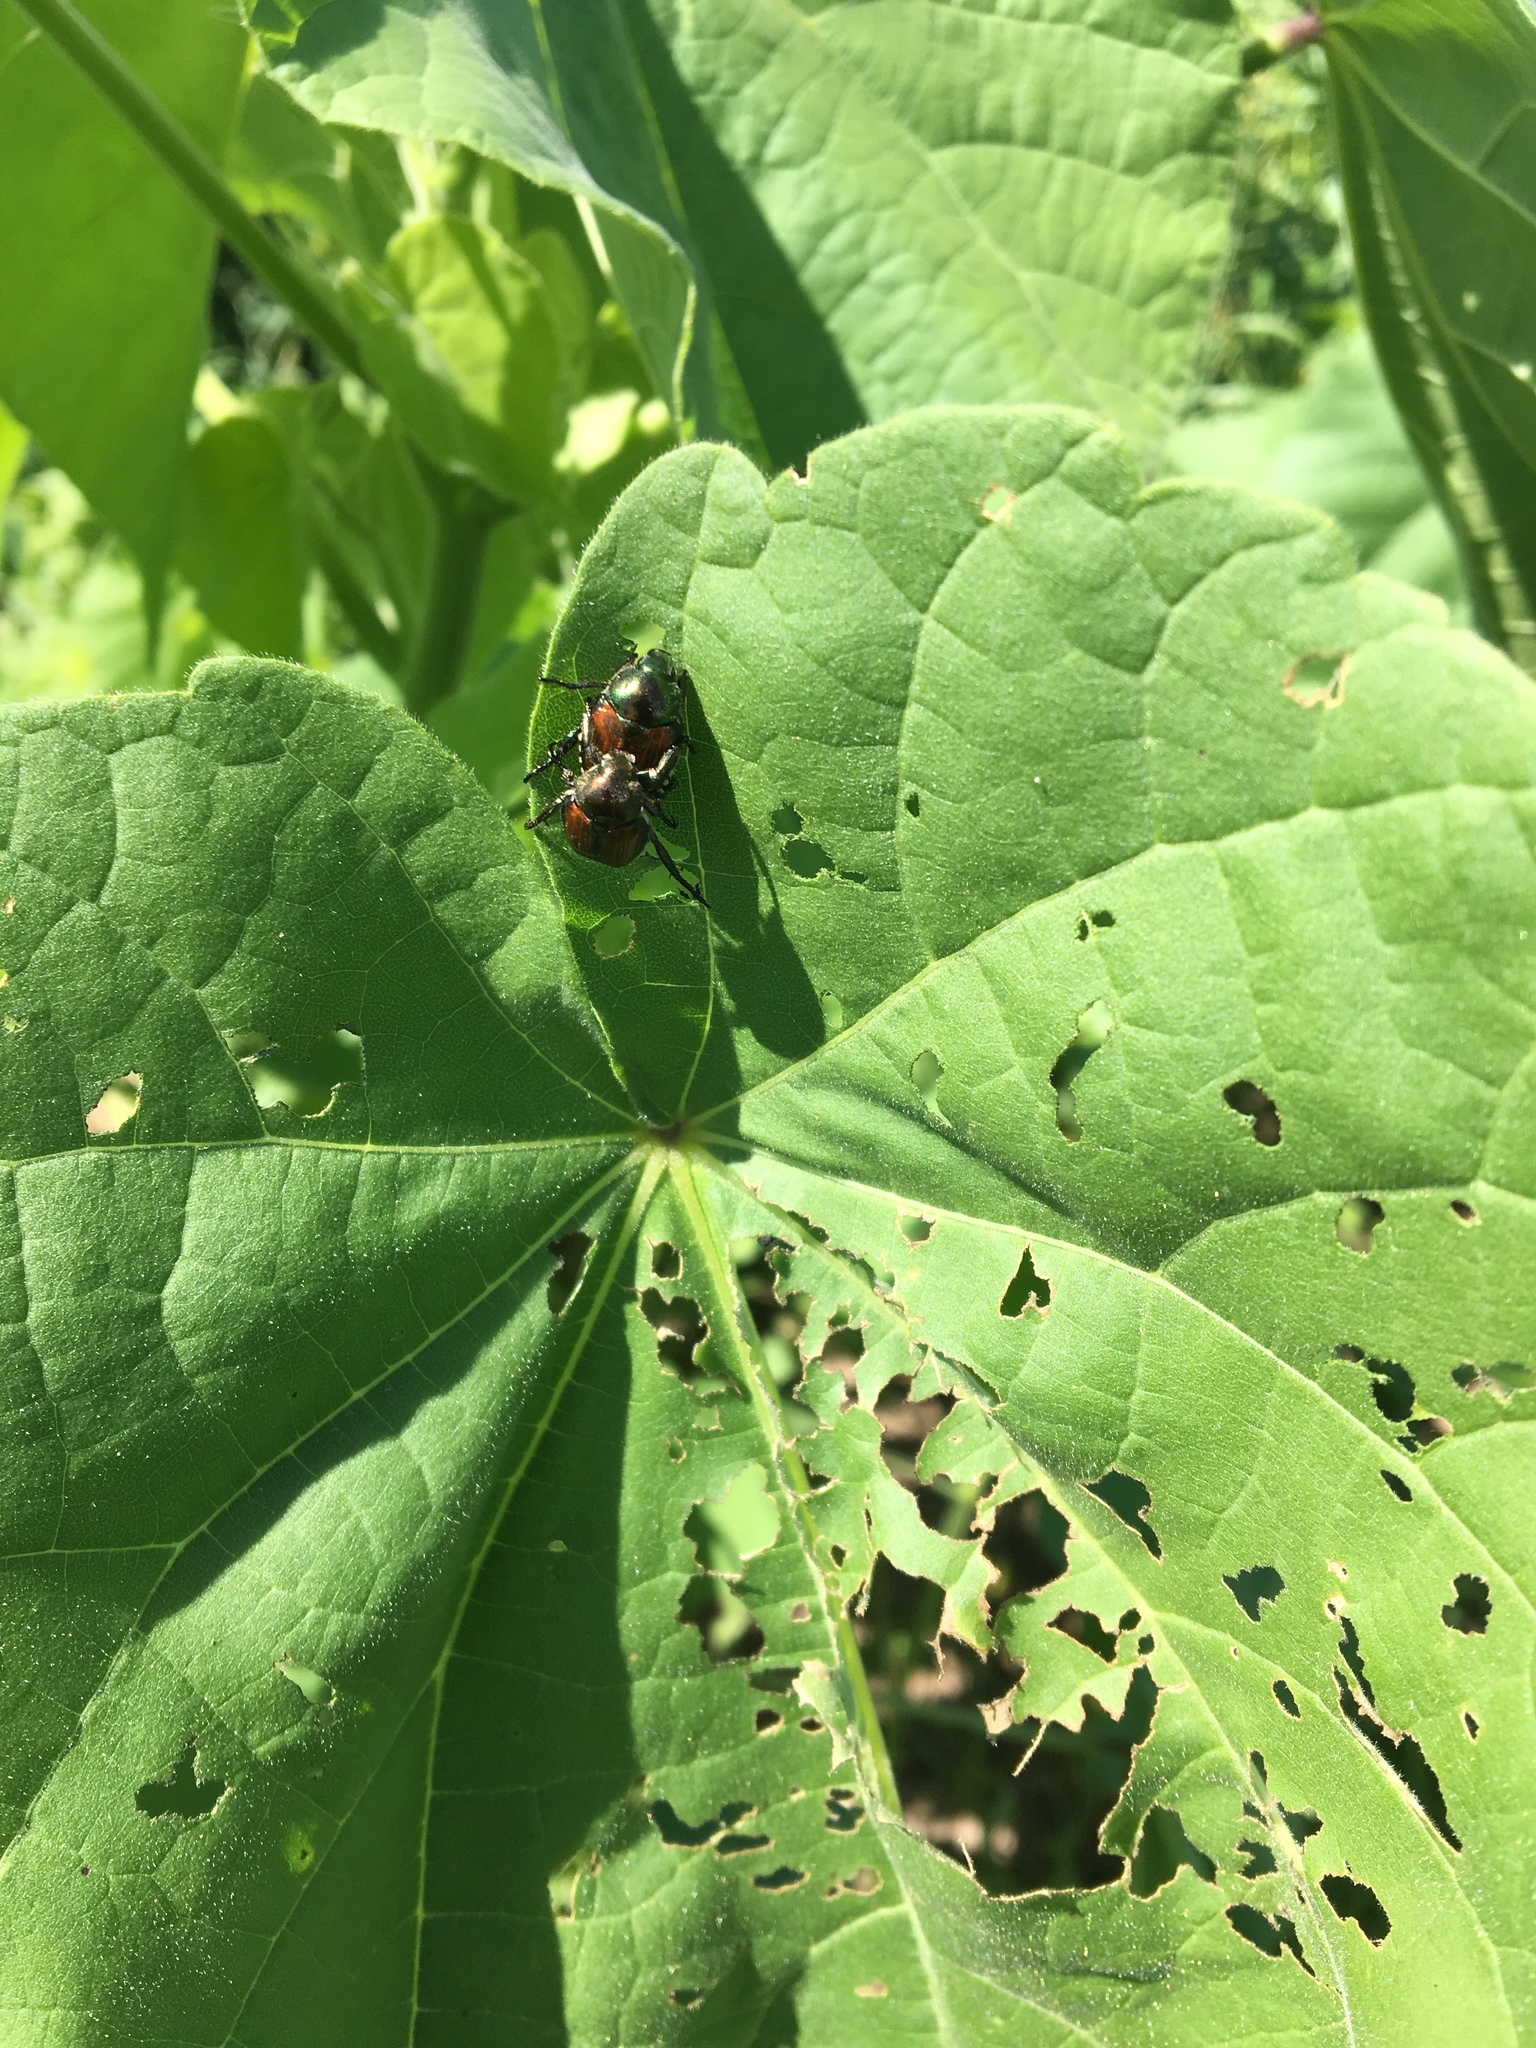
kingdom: Animalia
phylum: Arthropoda
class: Insecta
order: Coleoptera
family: Scarabaeidae
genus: Popillia
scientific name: Popillia japonica
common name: Japanese beetle
